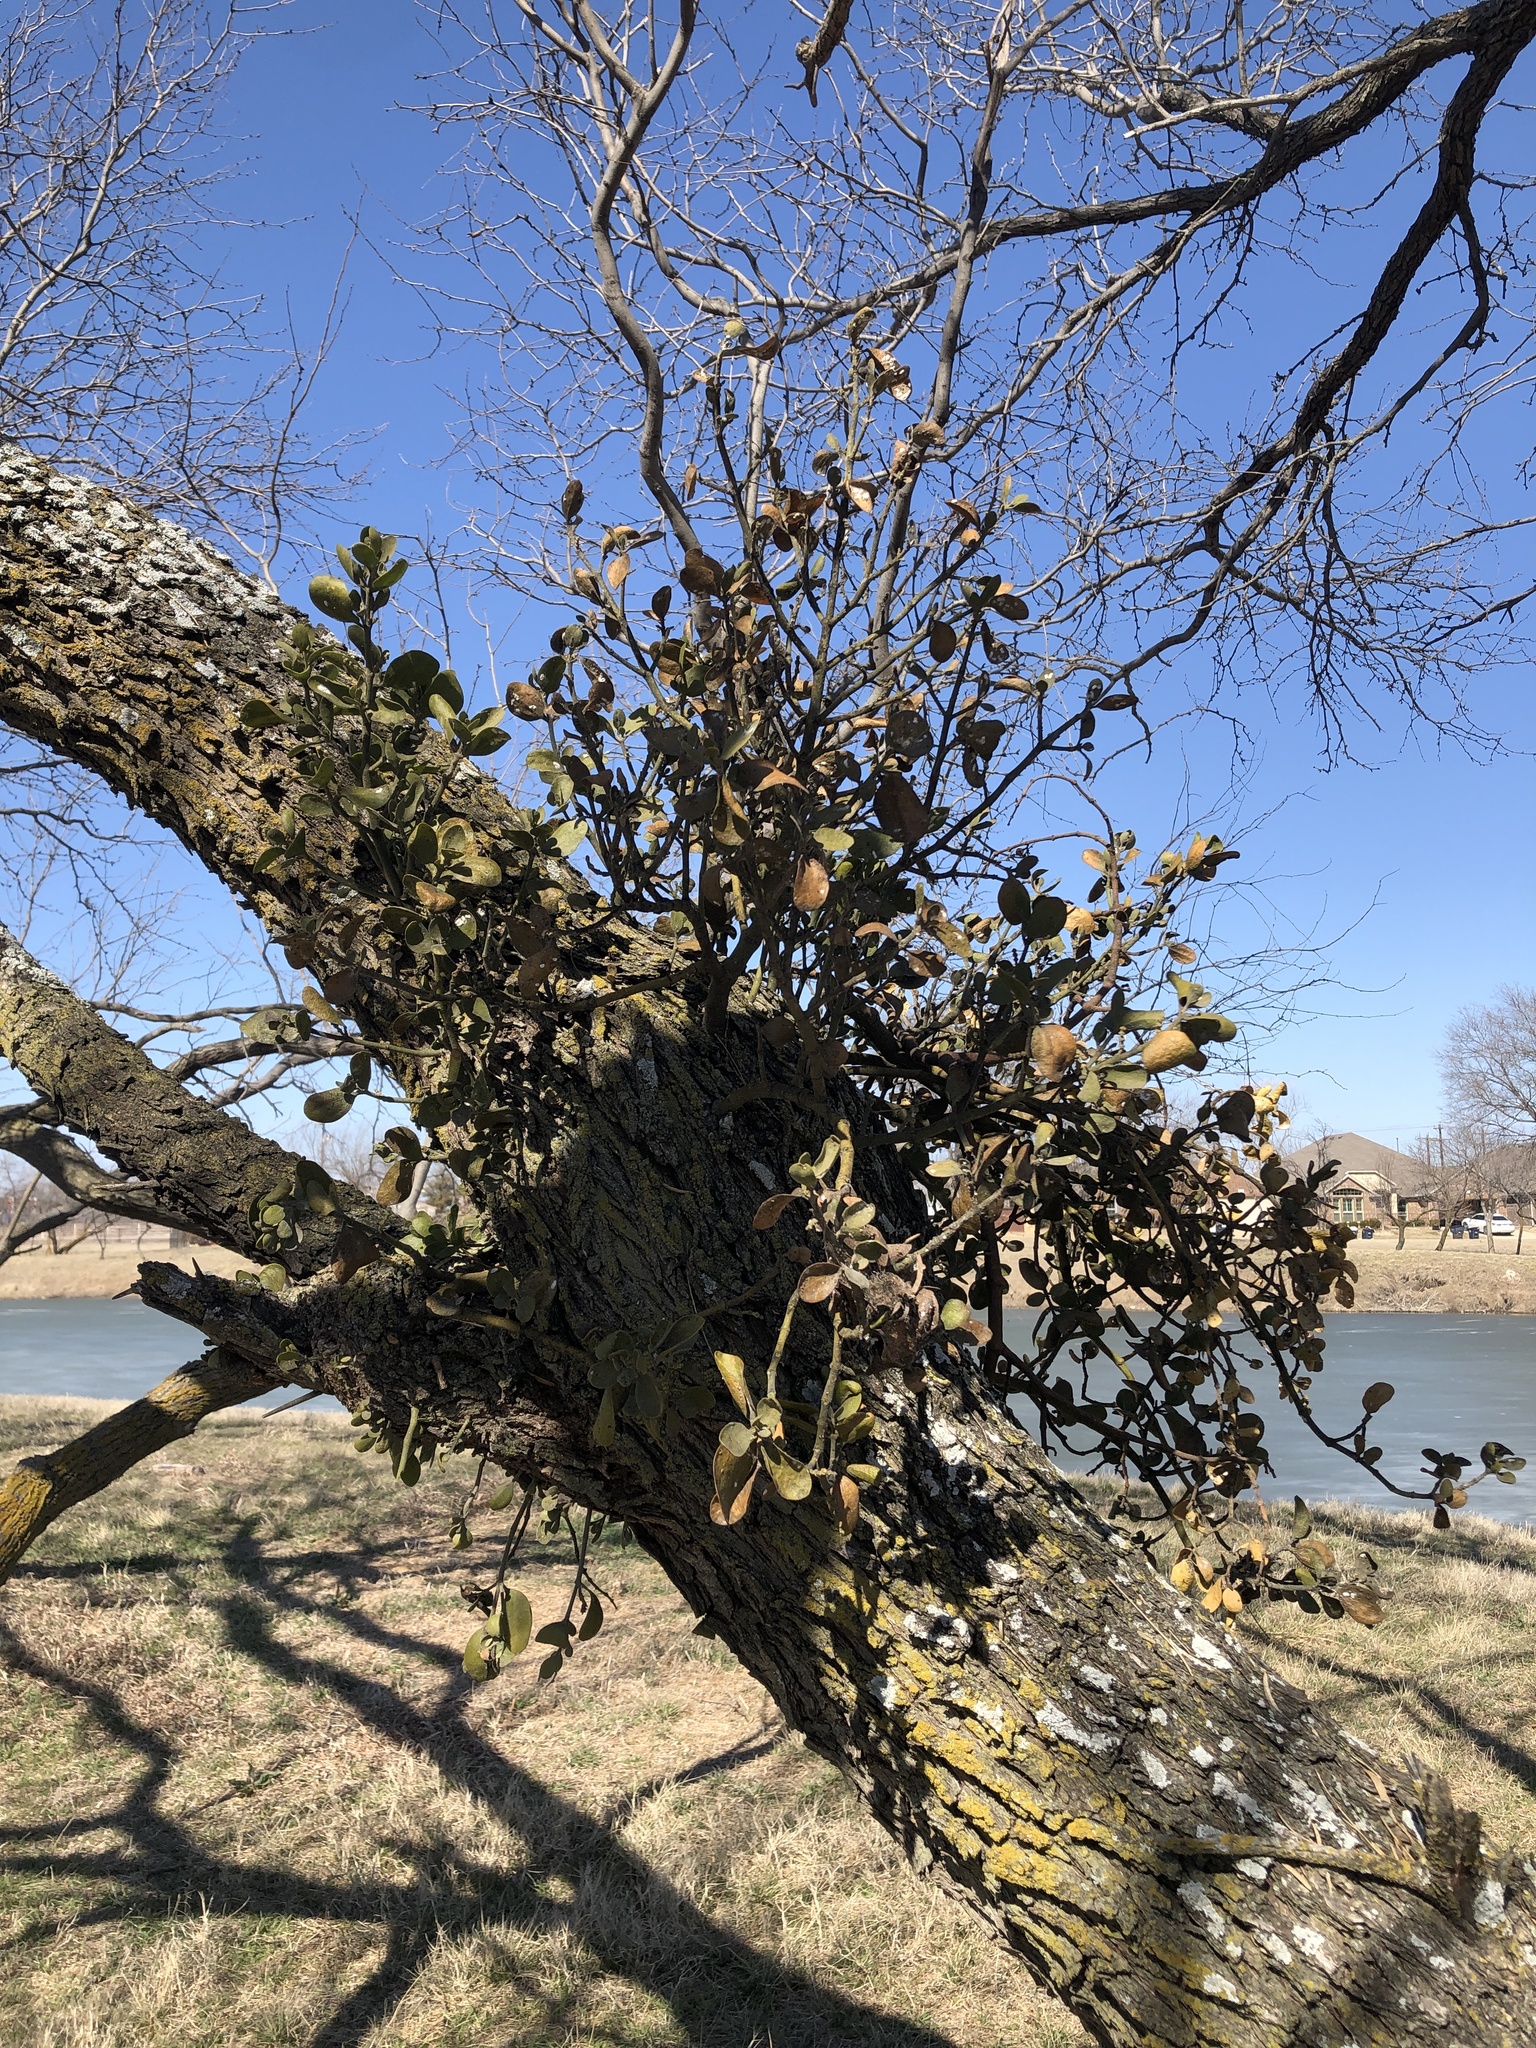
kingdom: Plantae
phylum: Tracheophyta
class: Magnoliopsida
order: Santalales
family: Viscaceae
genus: Phoradendron
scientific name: Phoradendron leucarpum
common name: Pacific mistletoe
